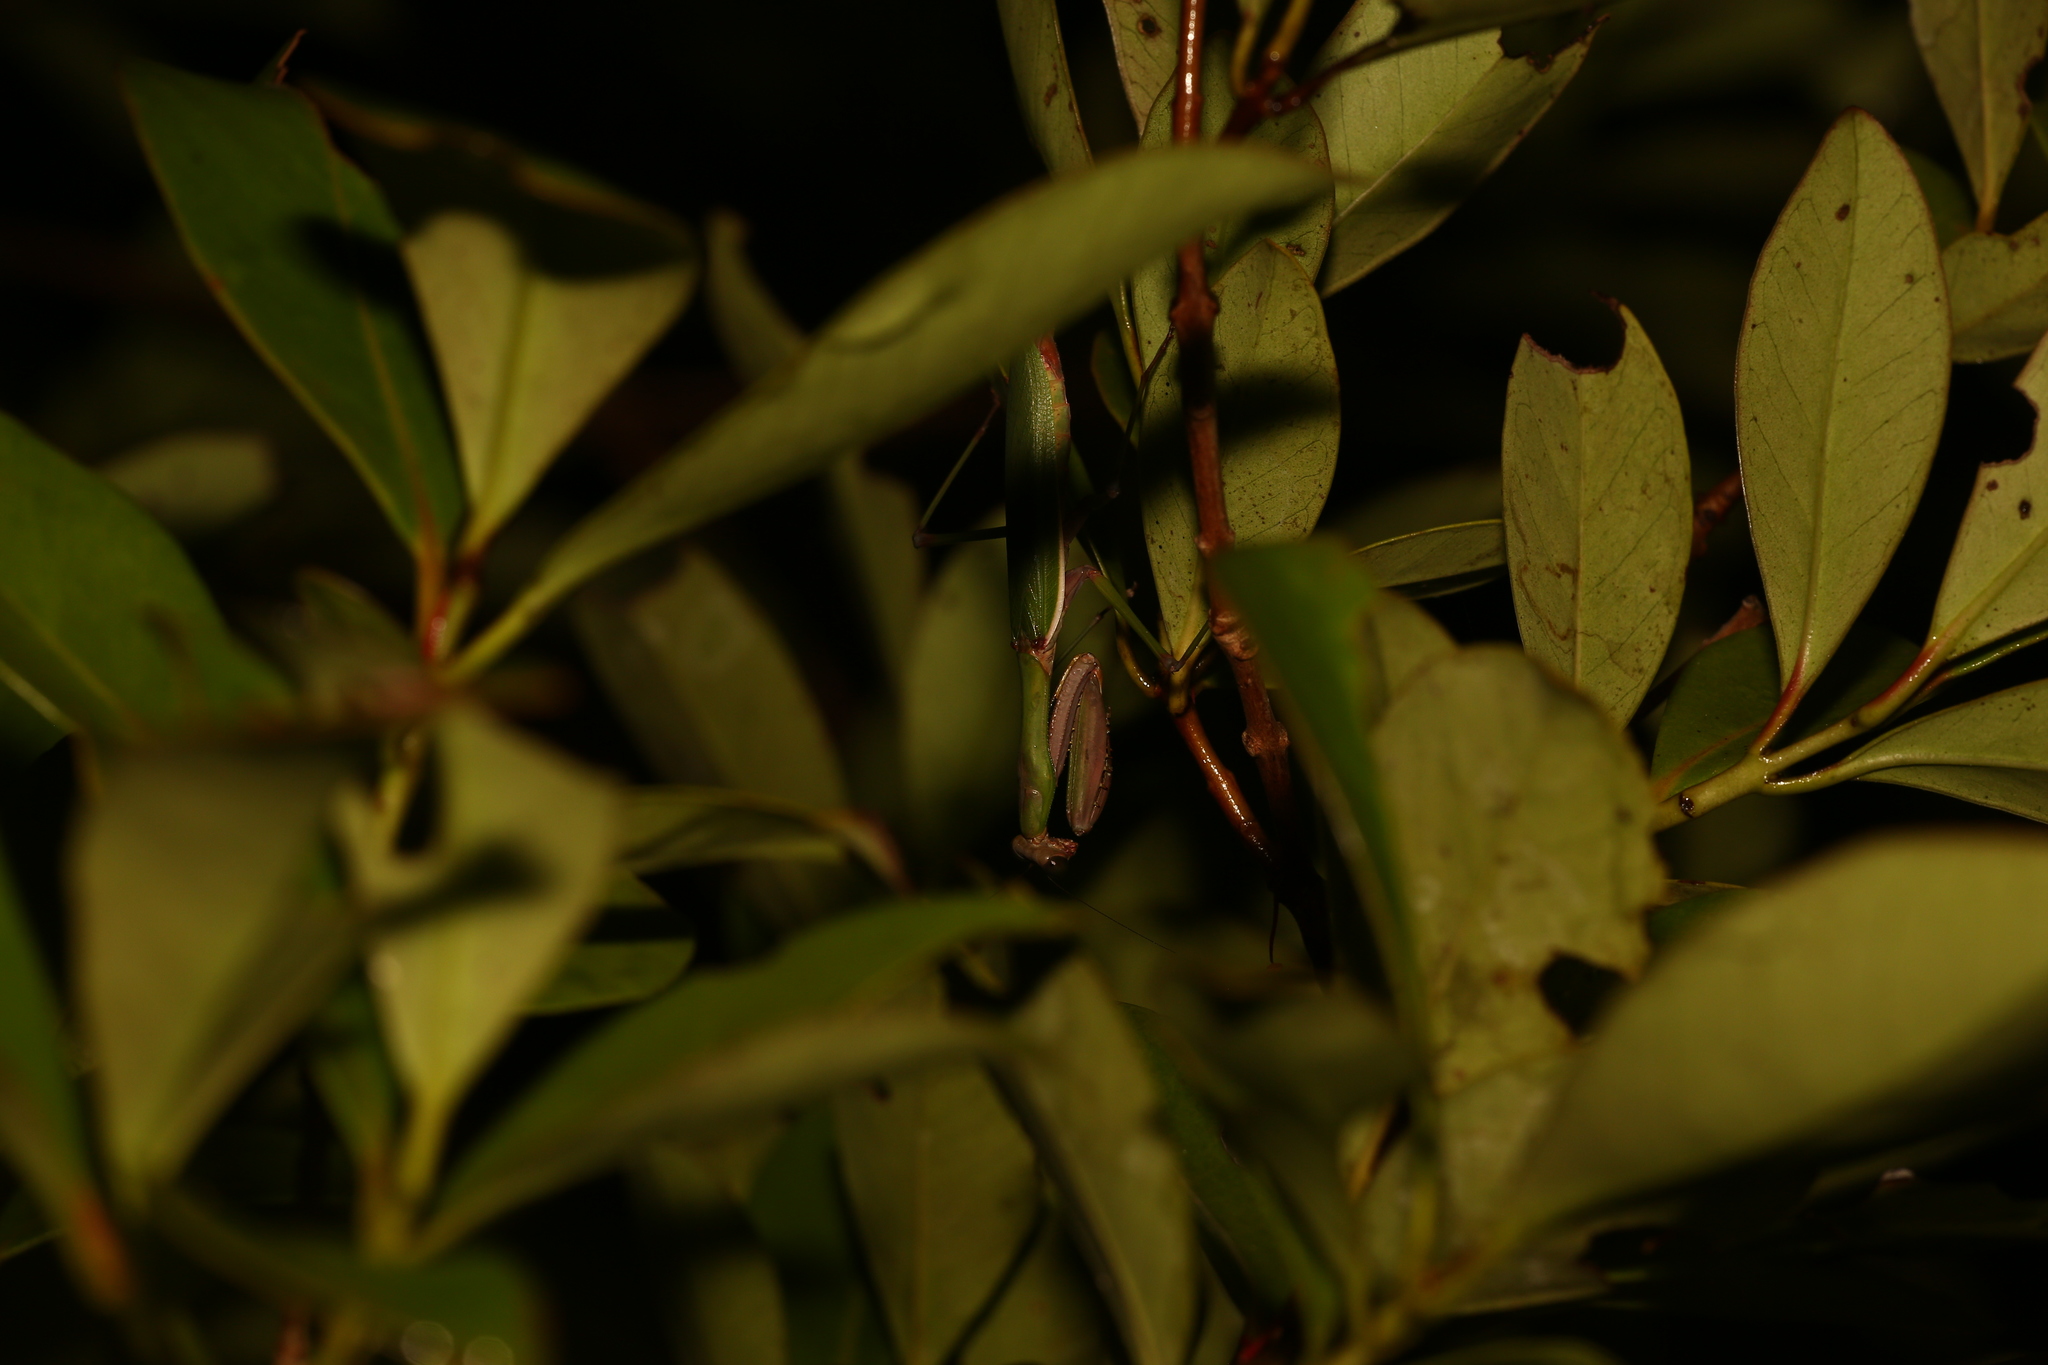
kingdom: Animalia
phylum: Arthropoda
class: Insecta
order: Mantodea
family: Mantidae
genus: Notomantis
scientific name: Notomantis brunneriana
